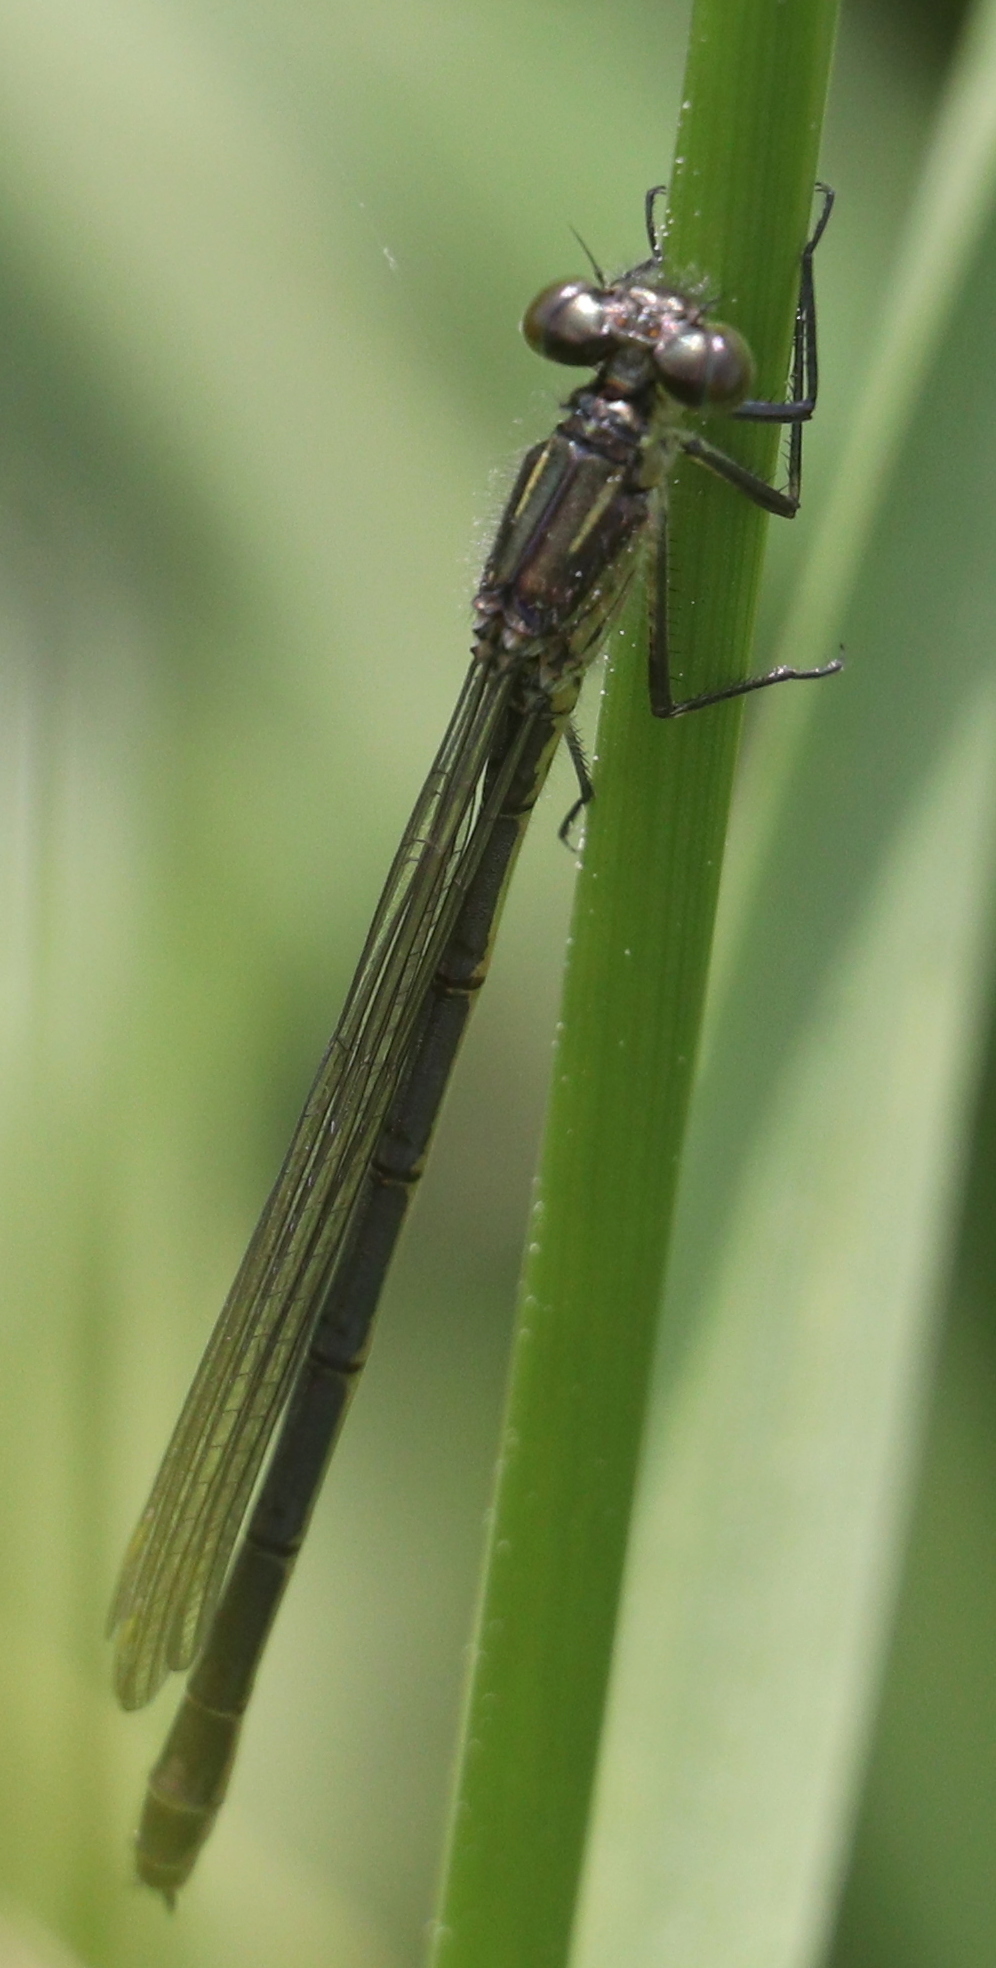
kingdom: Animalia
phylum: Arthropoda
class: Insecta
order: Odonata
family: Coenagrionidae
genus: Erythromma
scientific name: Erythromma najas
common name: Red-eyed damselfly
